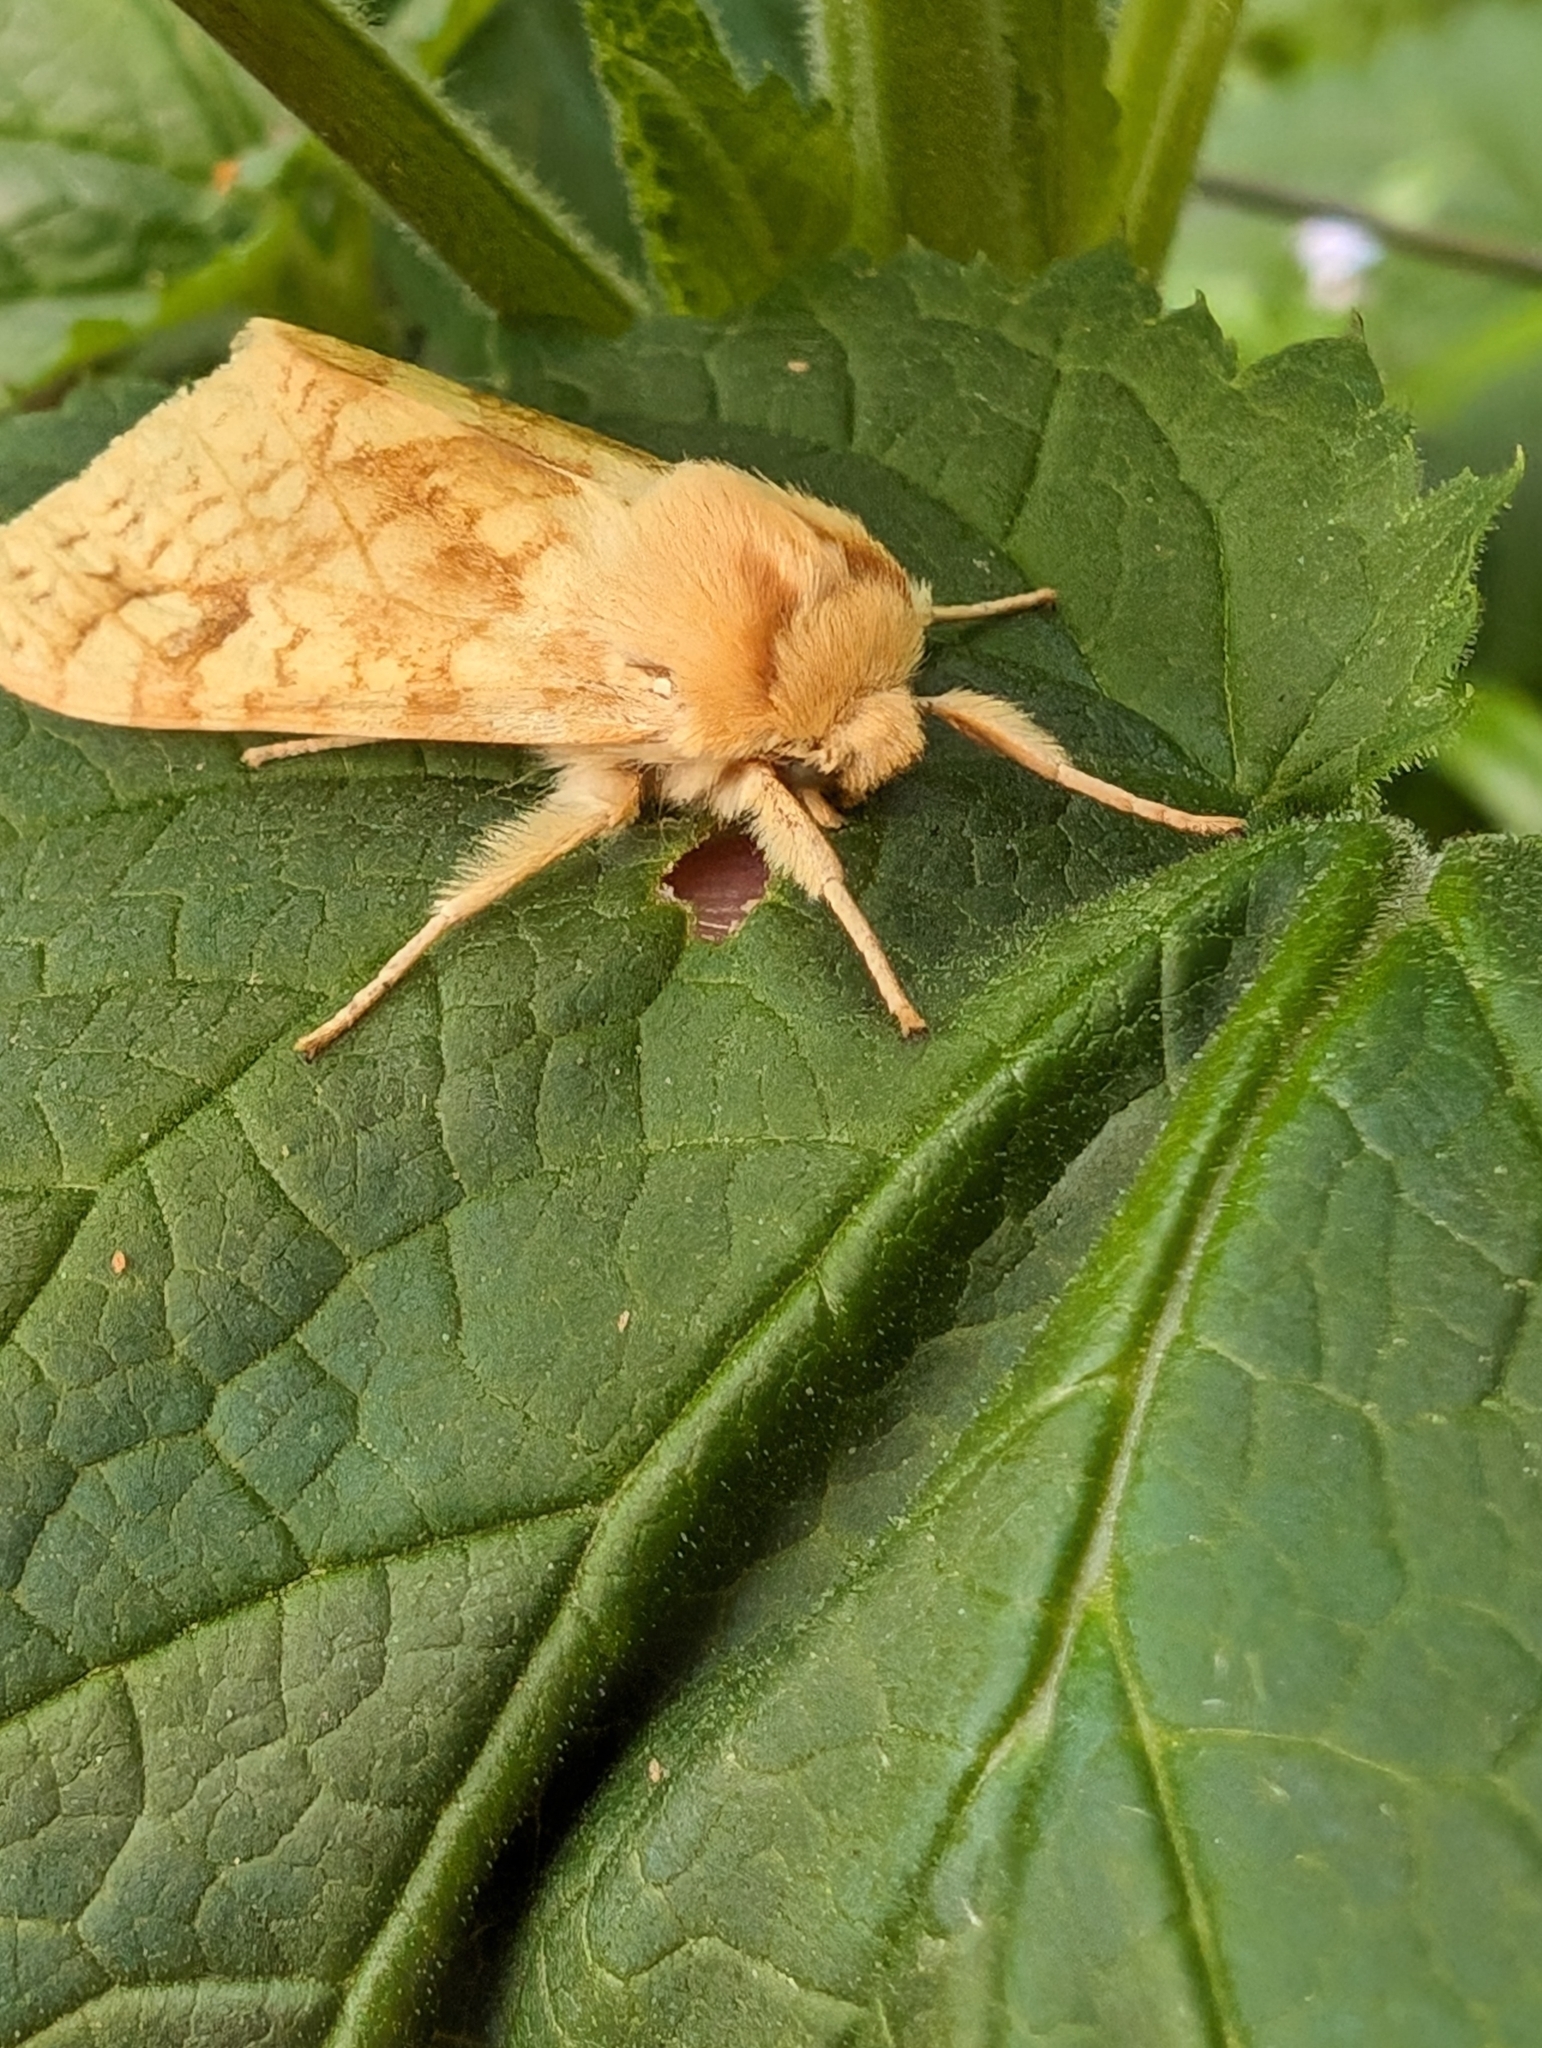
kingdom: Animalia
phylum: Arthropoda
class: Insecta
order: Lepidoptera
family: Erebidae
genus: Lophocampa
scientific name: Lophocampa maculata
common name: Spotted tussock moth
